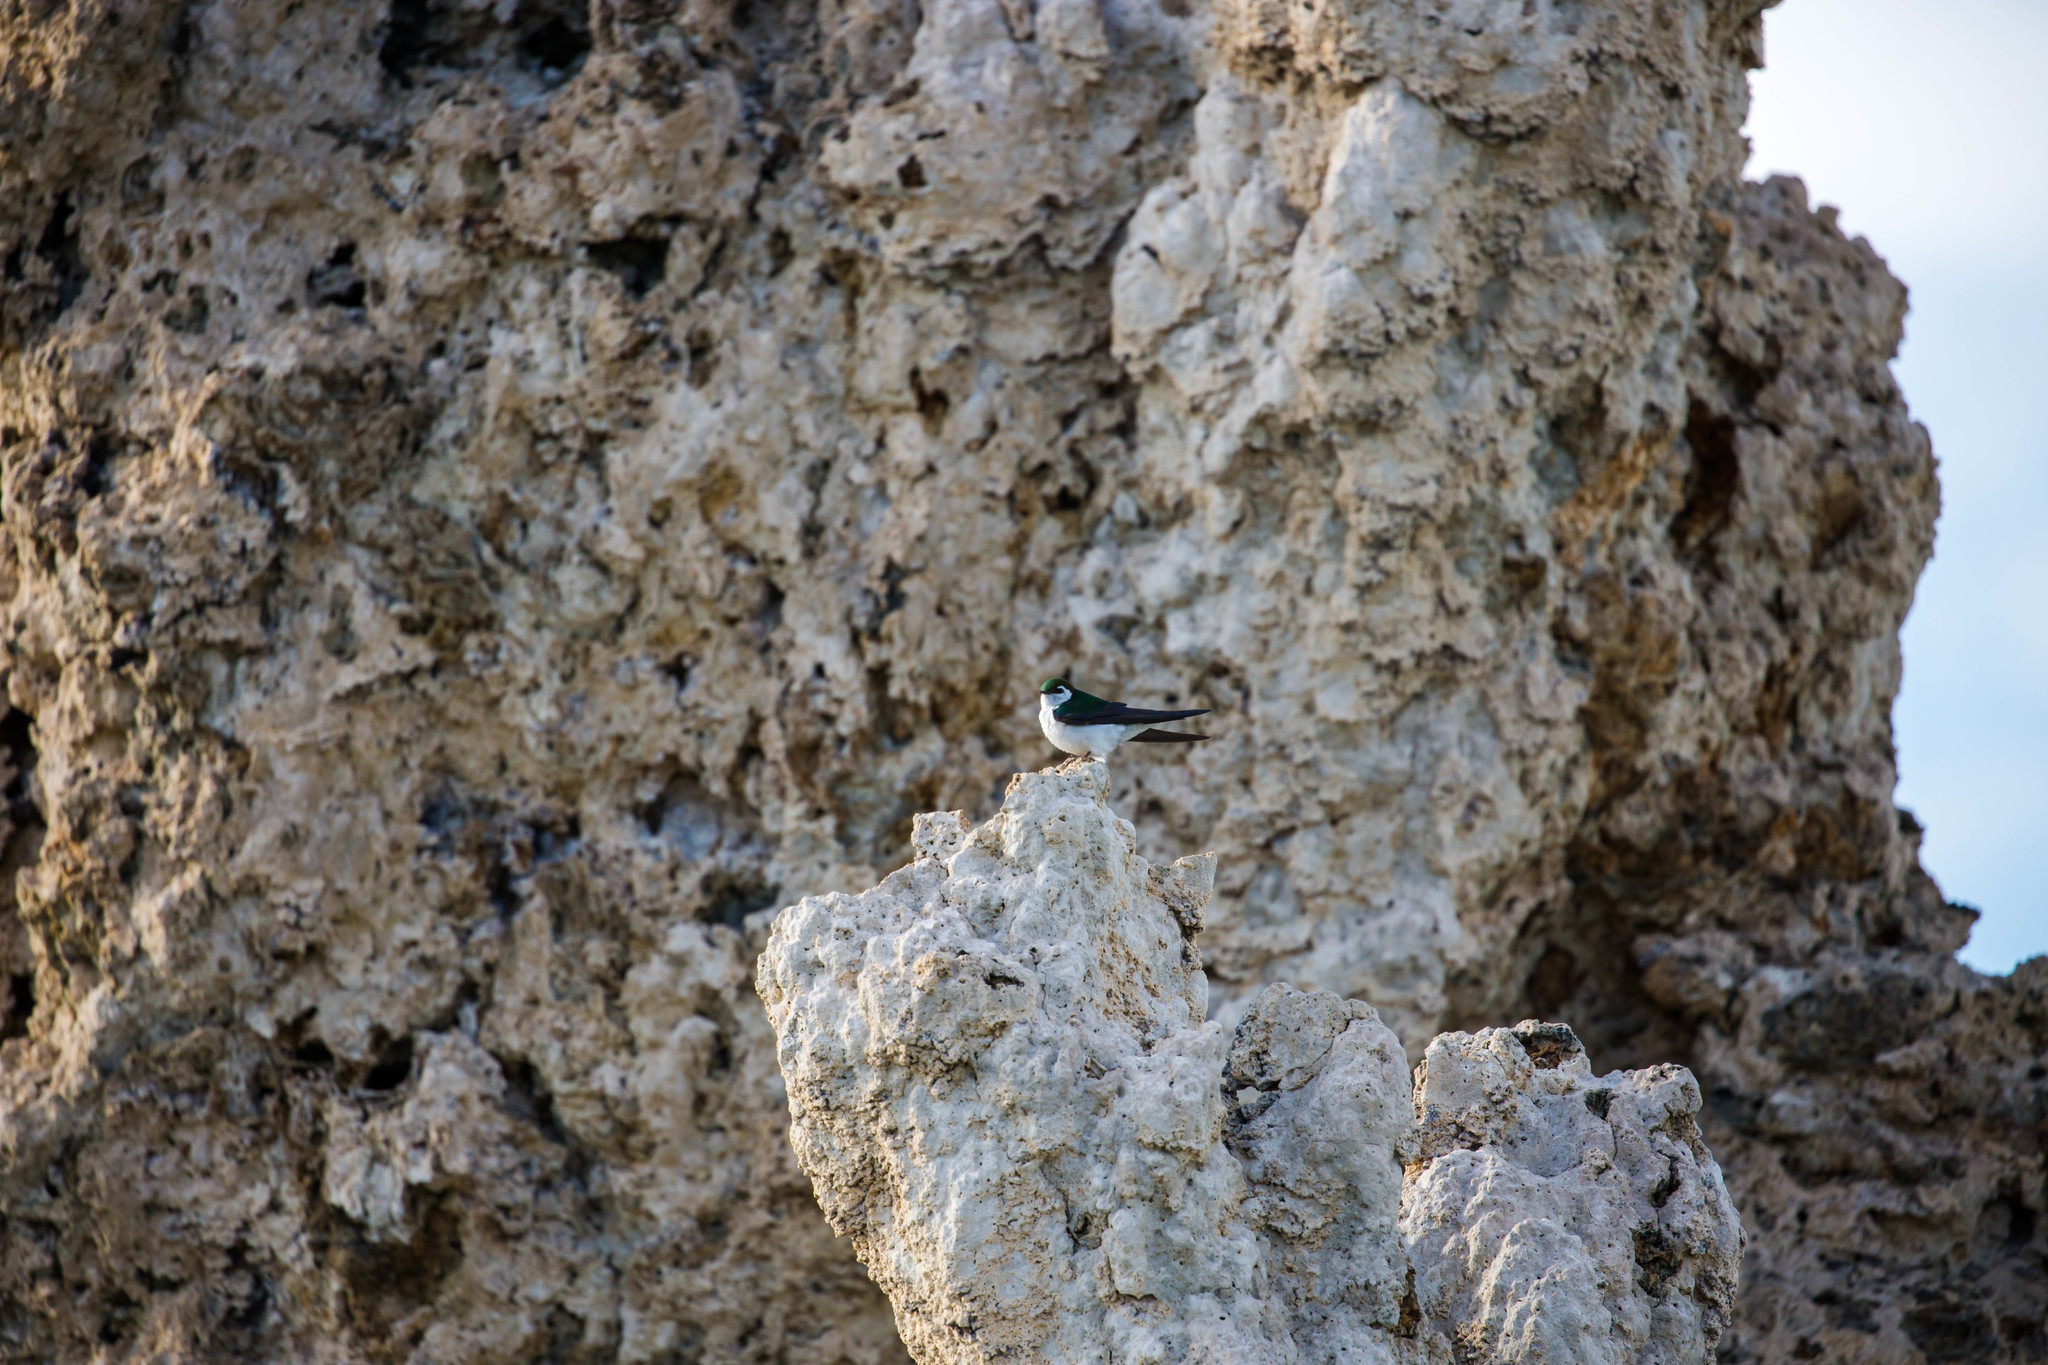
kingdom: Animalia
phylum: Chordata
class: Aves
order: Passeriformes
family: Hirundinidae
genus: Tachycineta
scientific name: Tachycineta thalassina
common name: Violet-green swallow
